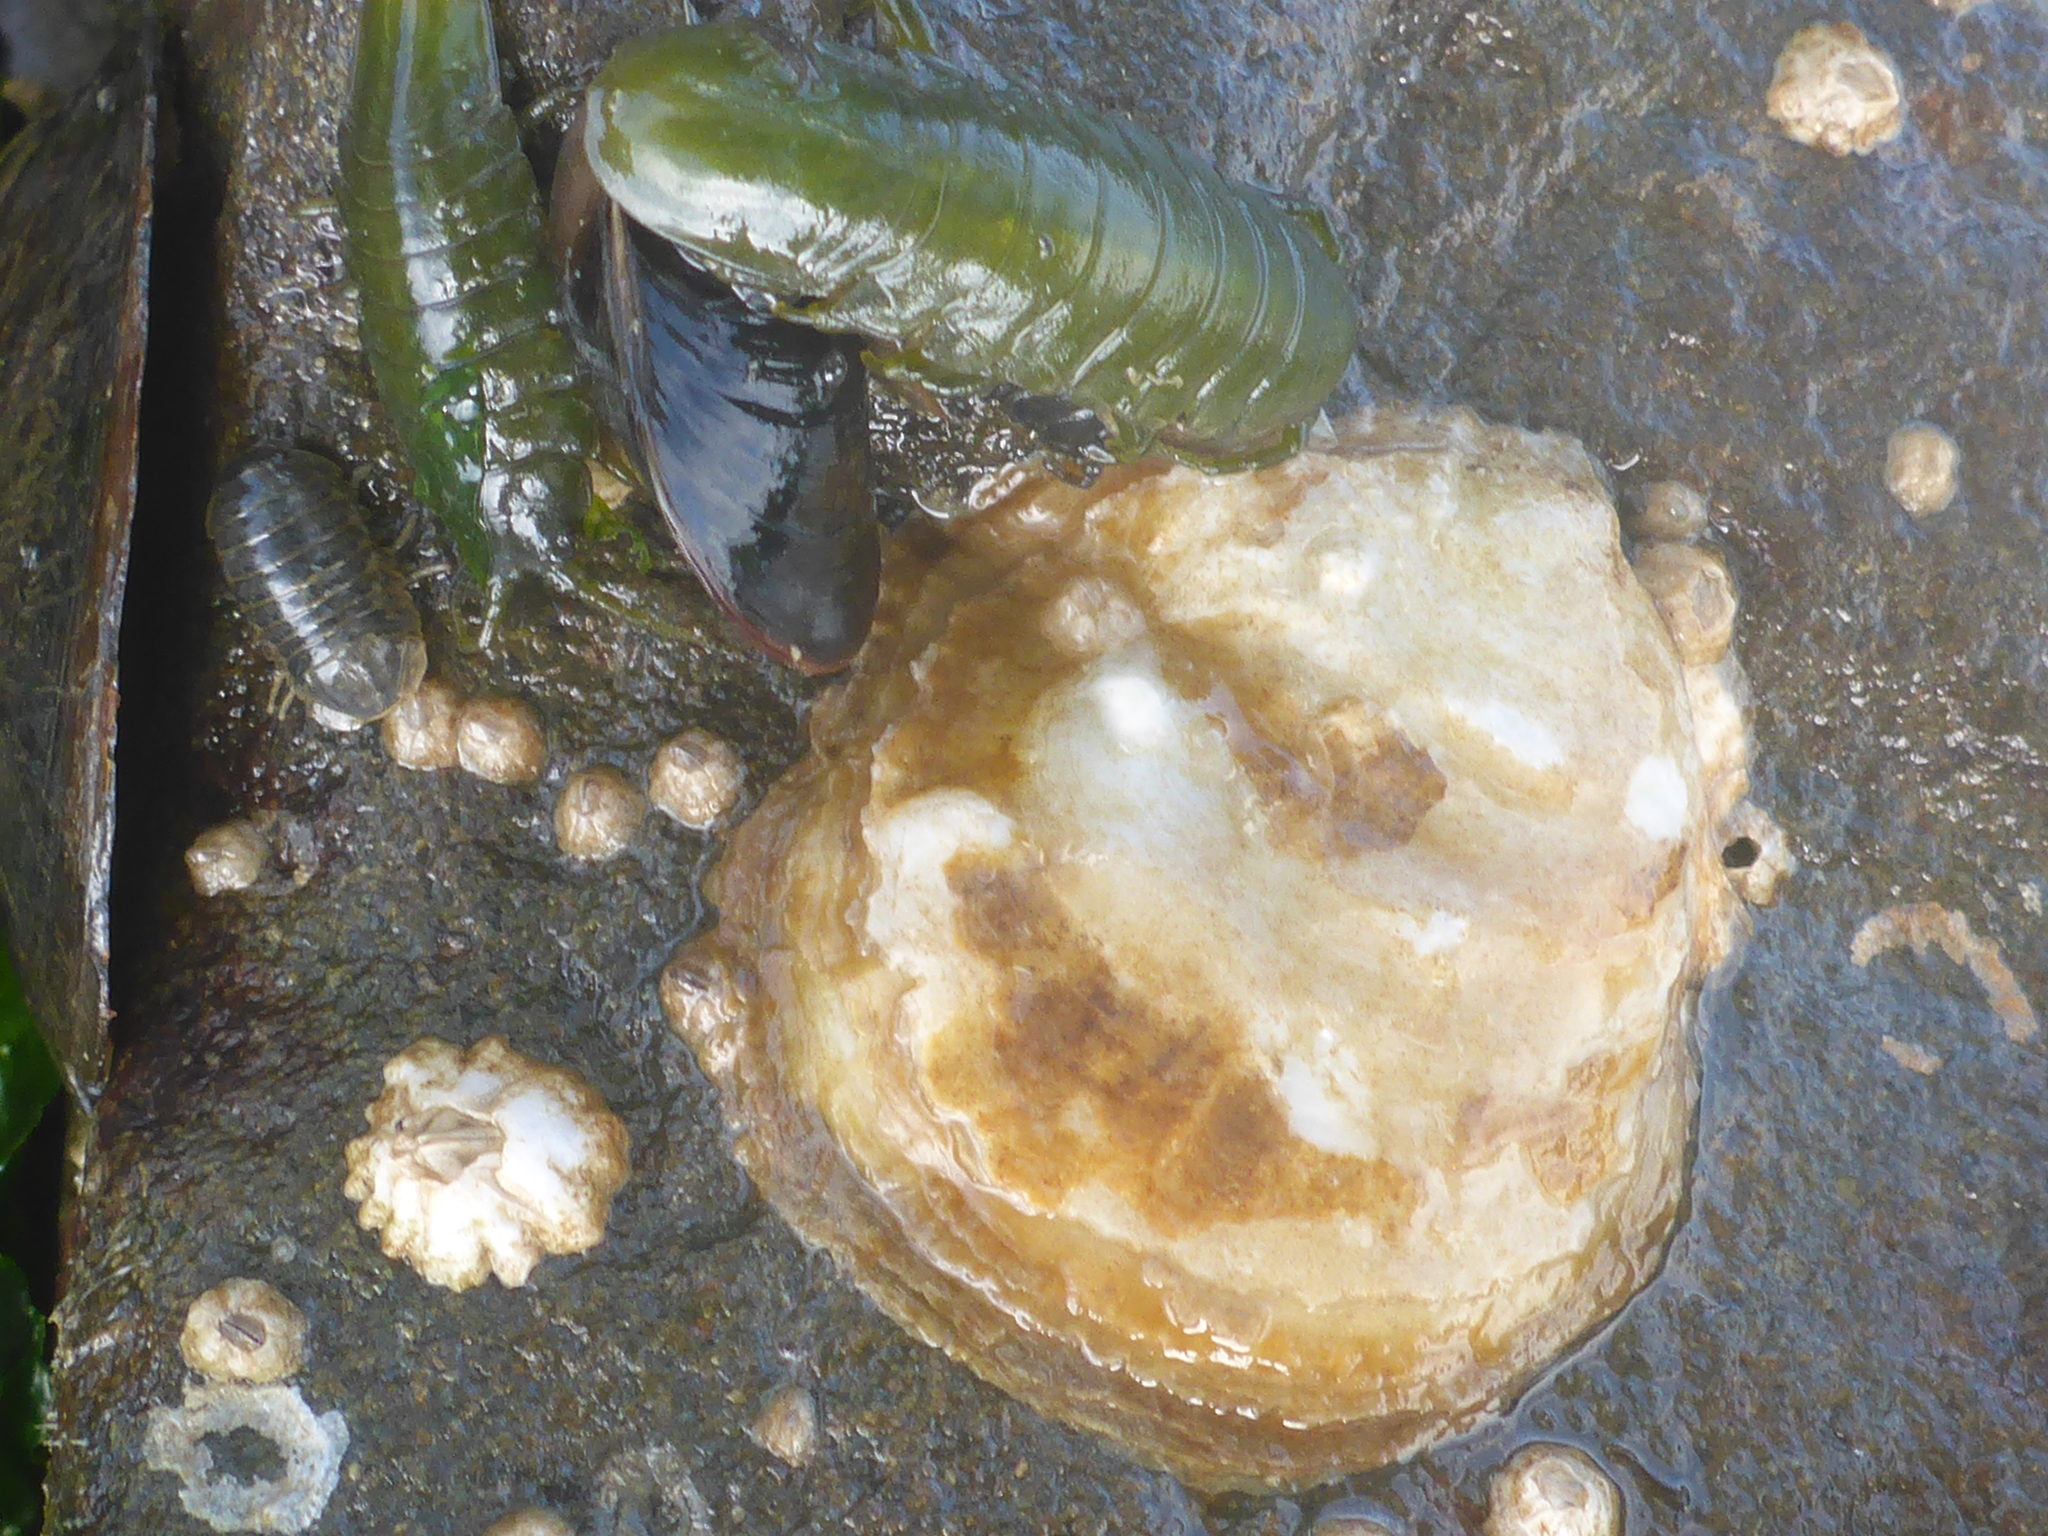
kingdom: Animalia
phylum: Mollusca
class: Bivalvia
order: Ostreida
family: Ostreidae
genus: Ostrea
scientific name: Ostrea lurida
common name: Olympia flat oyster
